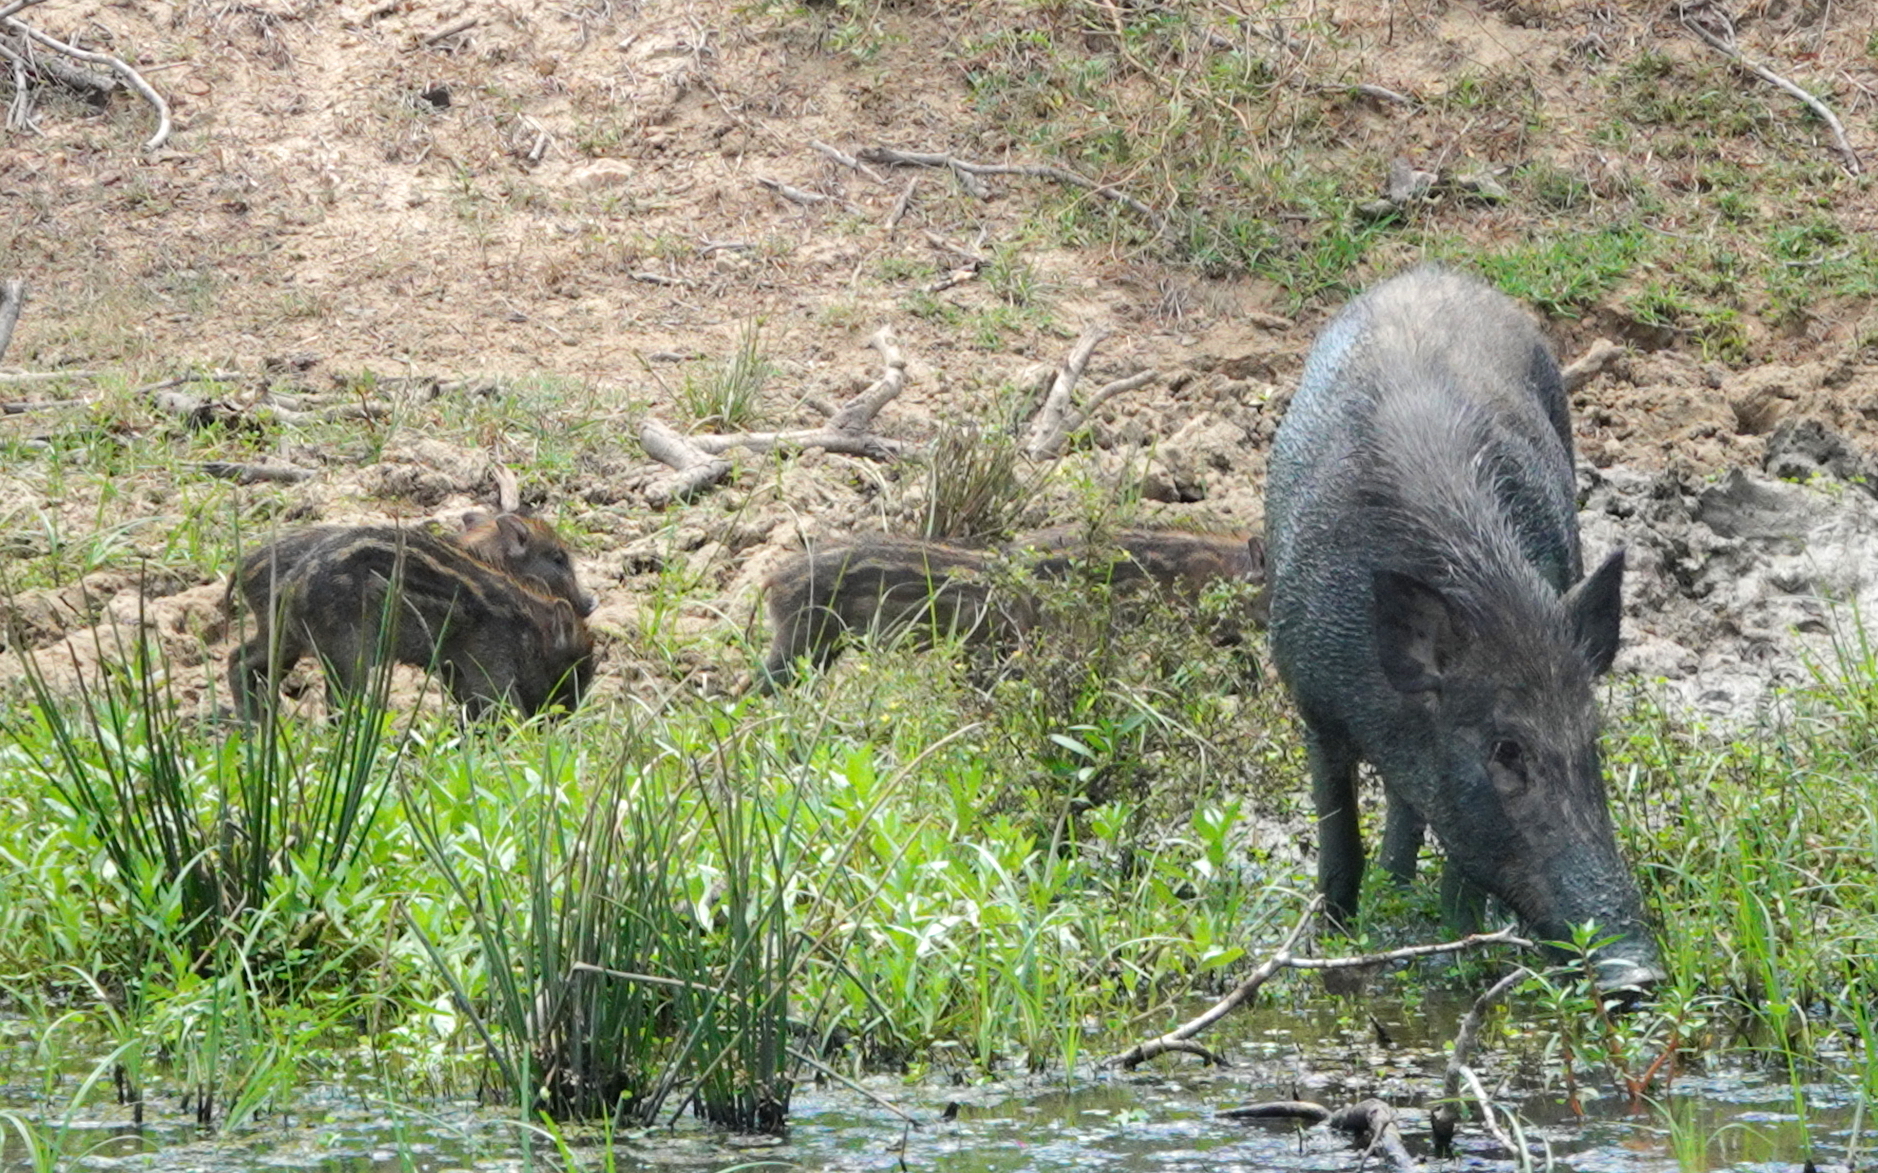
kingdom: Animalia
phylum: Chordata
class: Mammalia
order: Artiodactyla
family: Suidae
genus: Sus
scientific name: Sus scrofa
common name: Wild boar
